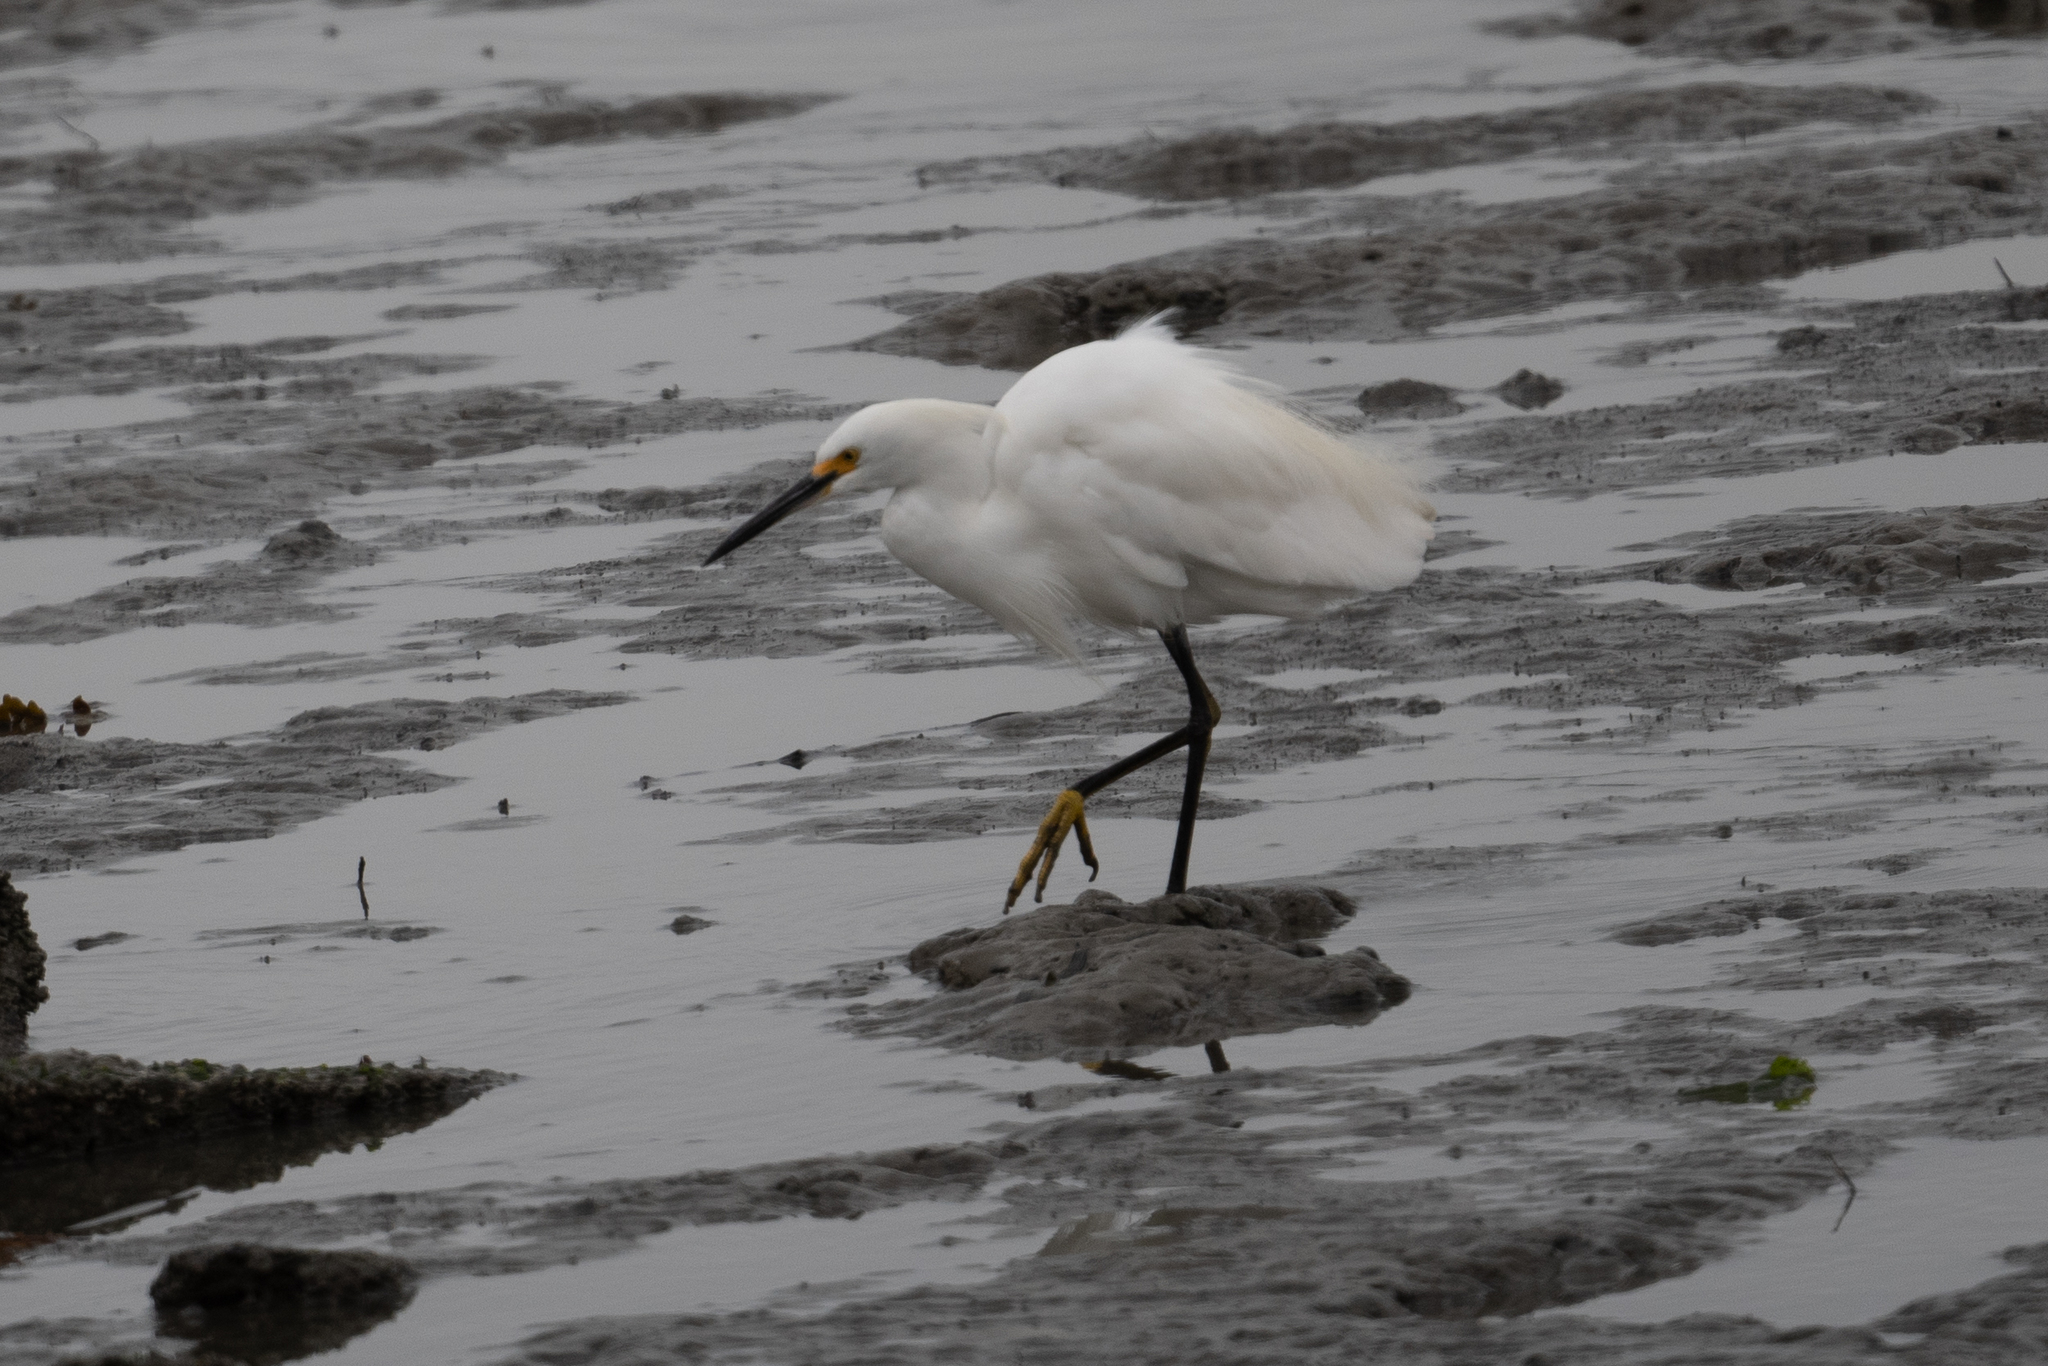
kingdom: Animalia
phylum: Chordata
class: Aves
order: Pelecaniformes
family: Ardeidae
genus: Egretta
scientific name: Egretta thula
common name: Snowy egret
